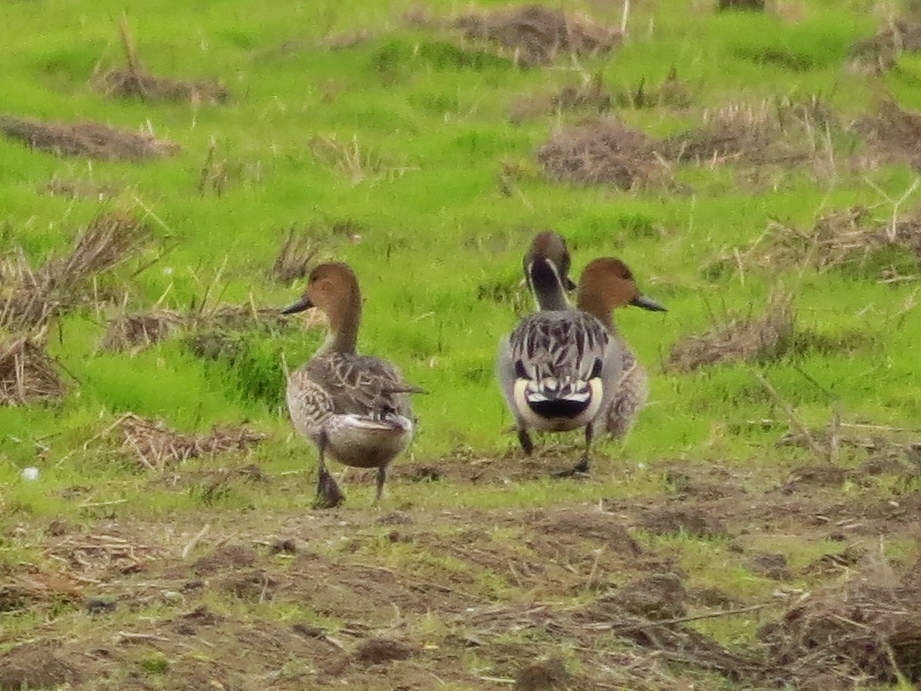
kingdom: Animalia
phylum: Chordata
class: Aves
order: Anseriformes
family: Anatidae
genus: Anas
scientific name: Anas acuta
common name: Northern pintail
